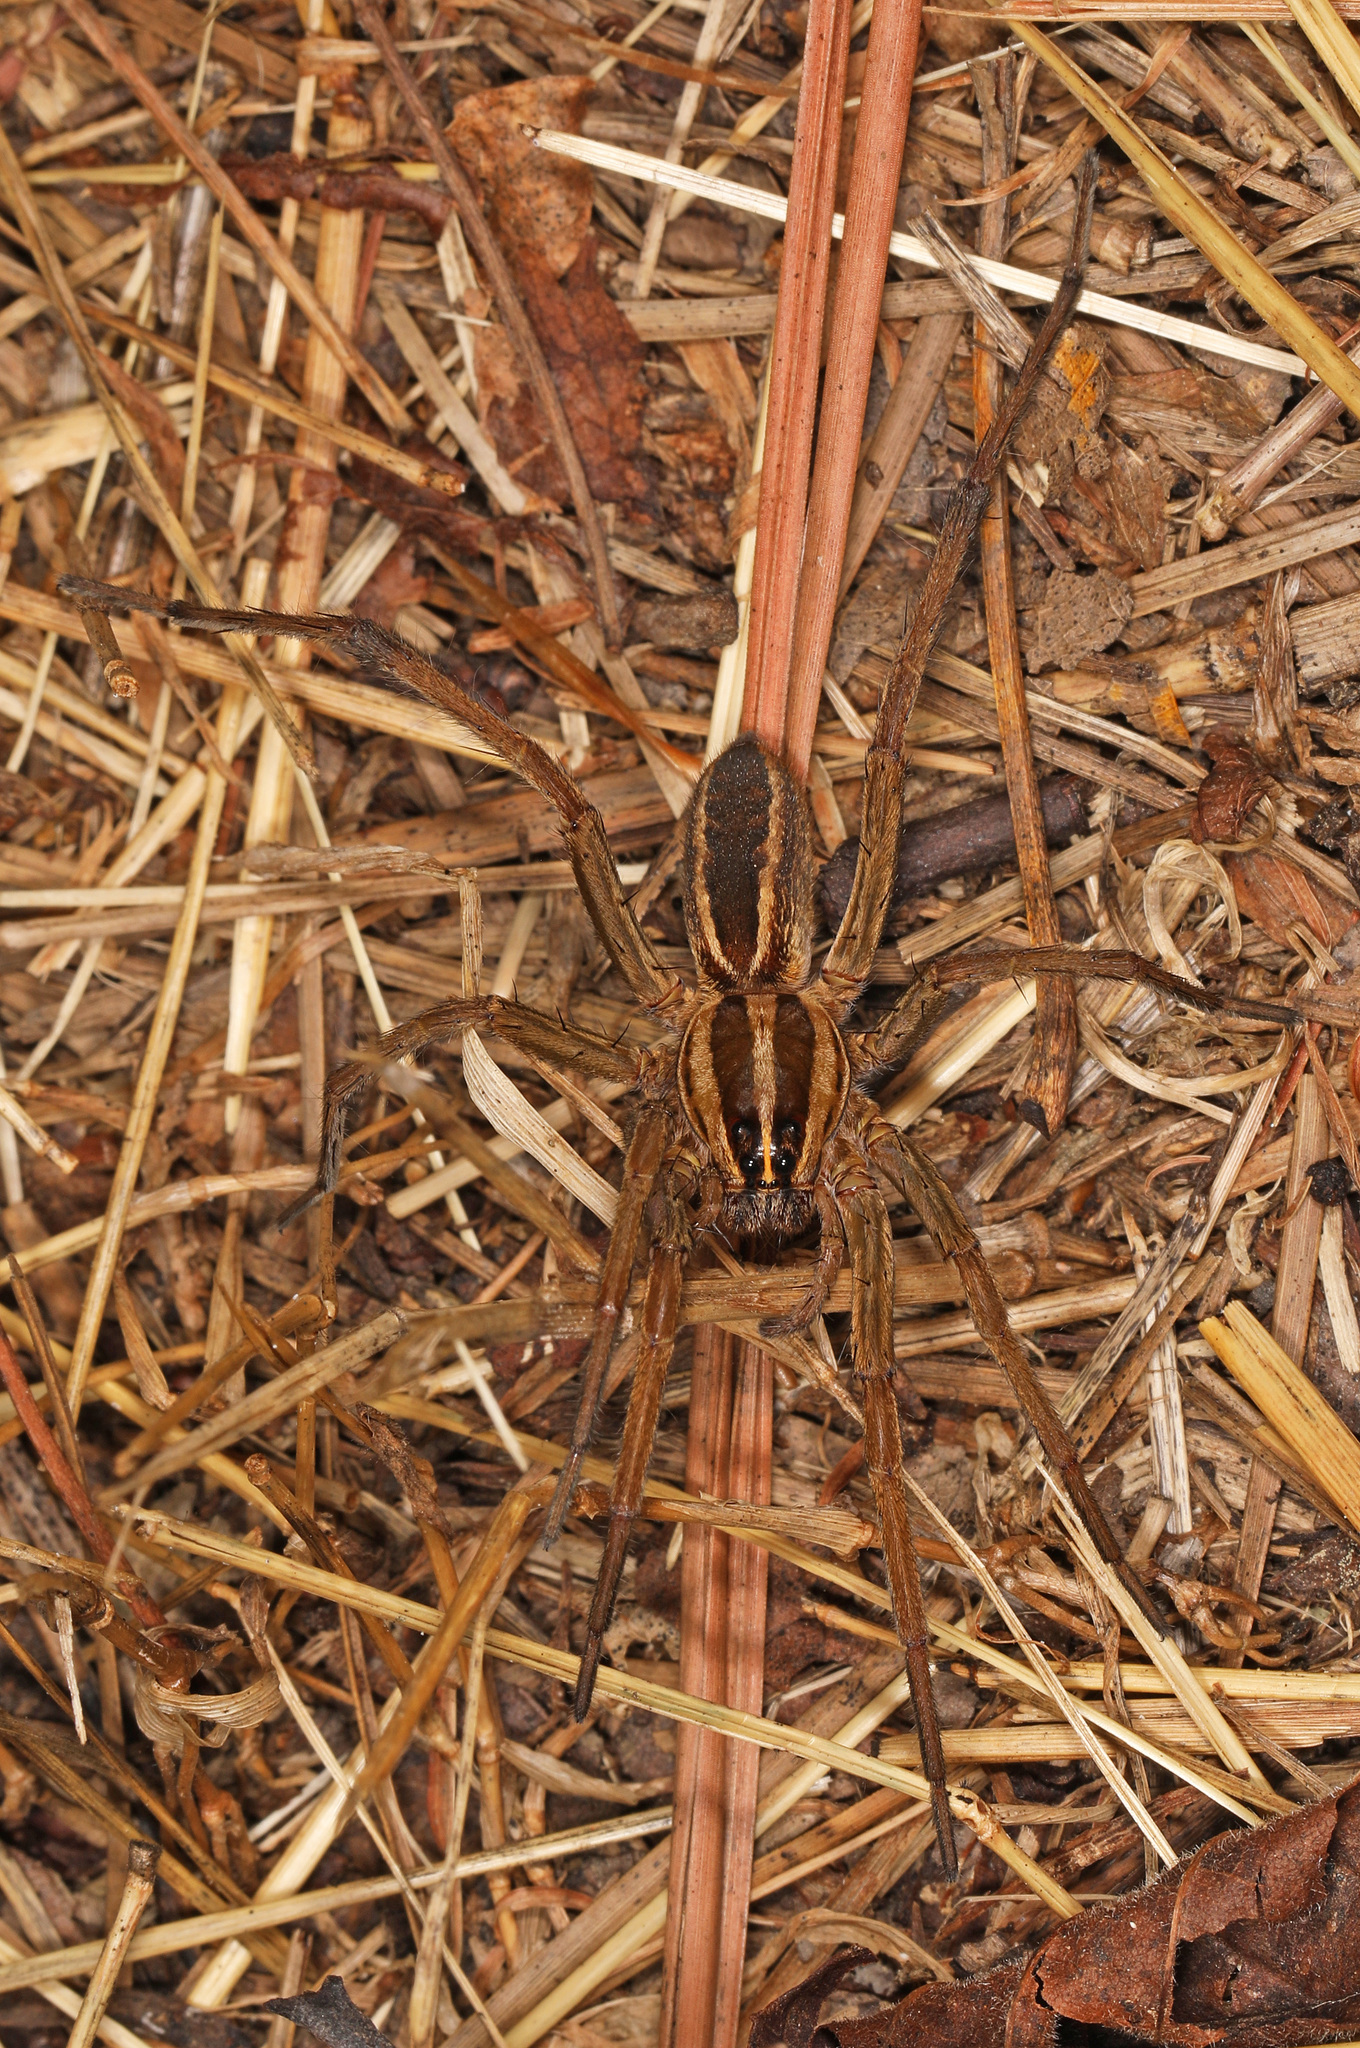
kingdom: Animalia
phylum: Arthropoda
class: Arachnida
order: Araneae
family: Lycosidae
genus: Rabidosa
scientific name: Rabidosa rabida
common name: Rabid wolf spider
